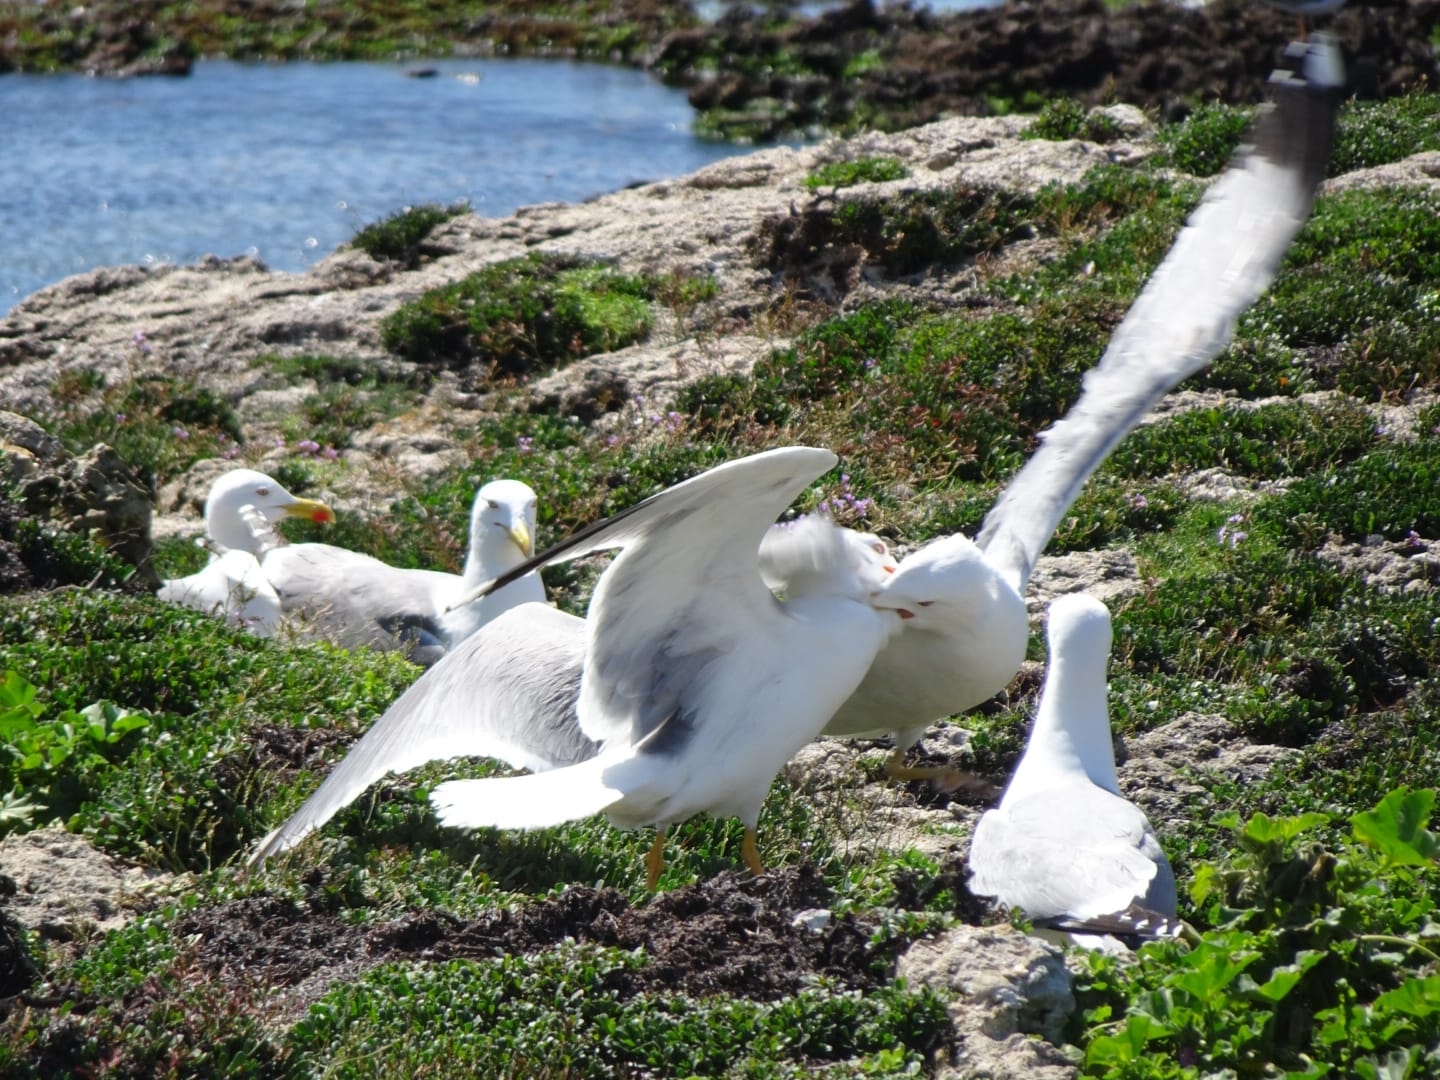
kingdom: Animalia
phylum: Chordata
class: Aves
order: Charadriiformes
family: Laridae
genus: Larus
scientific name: Larus michahellis
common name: Yellow-legged gull
